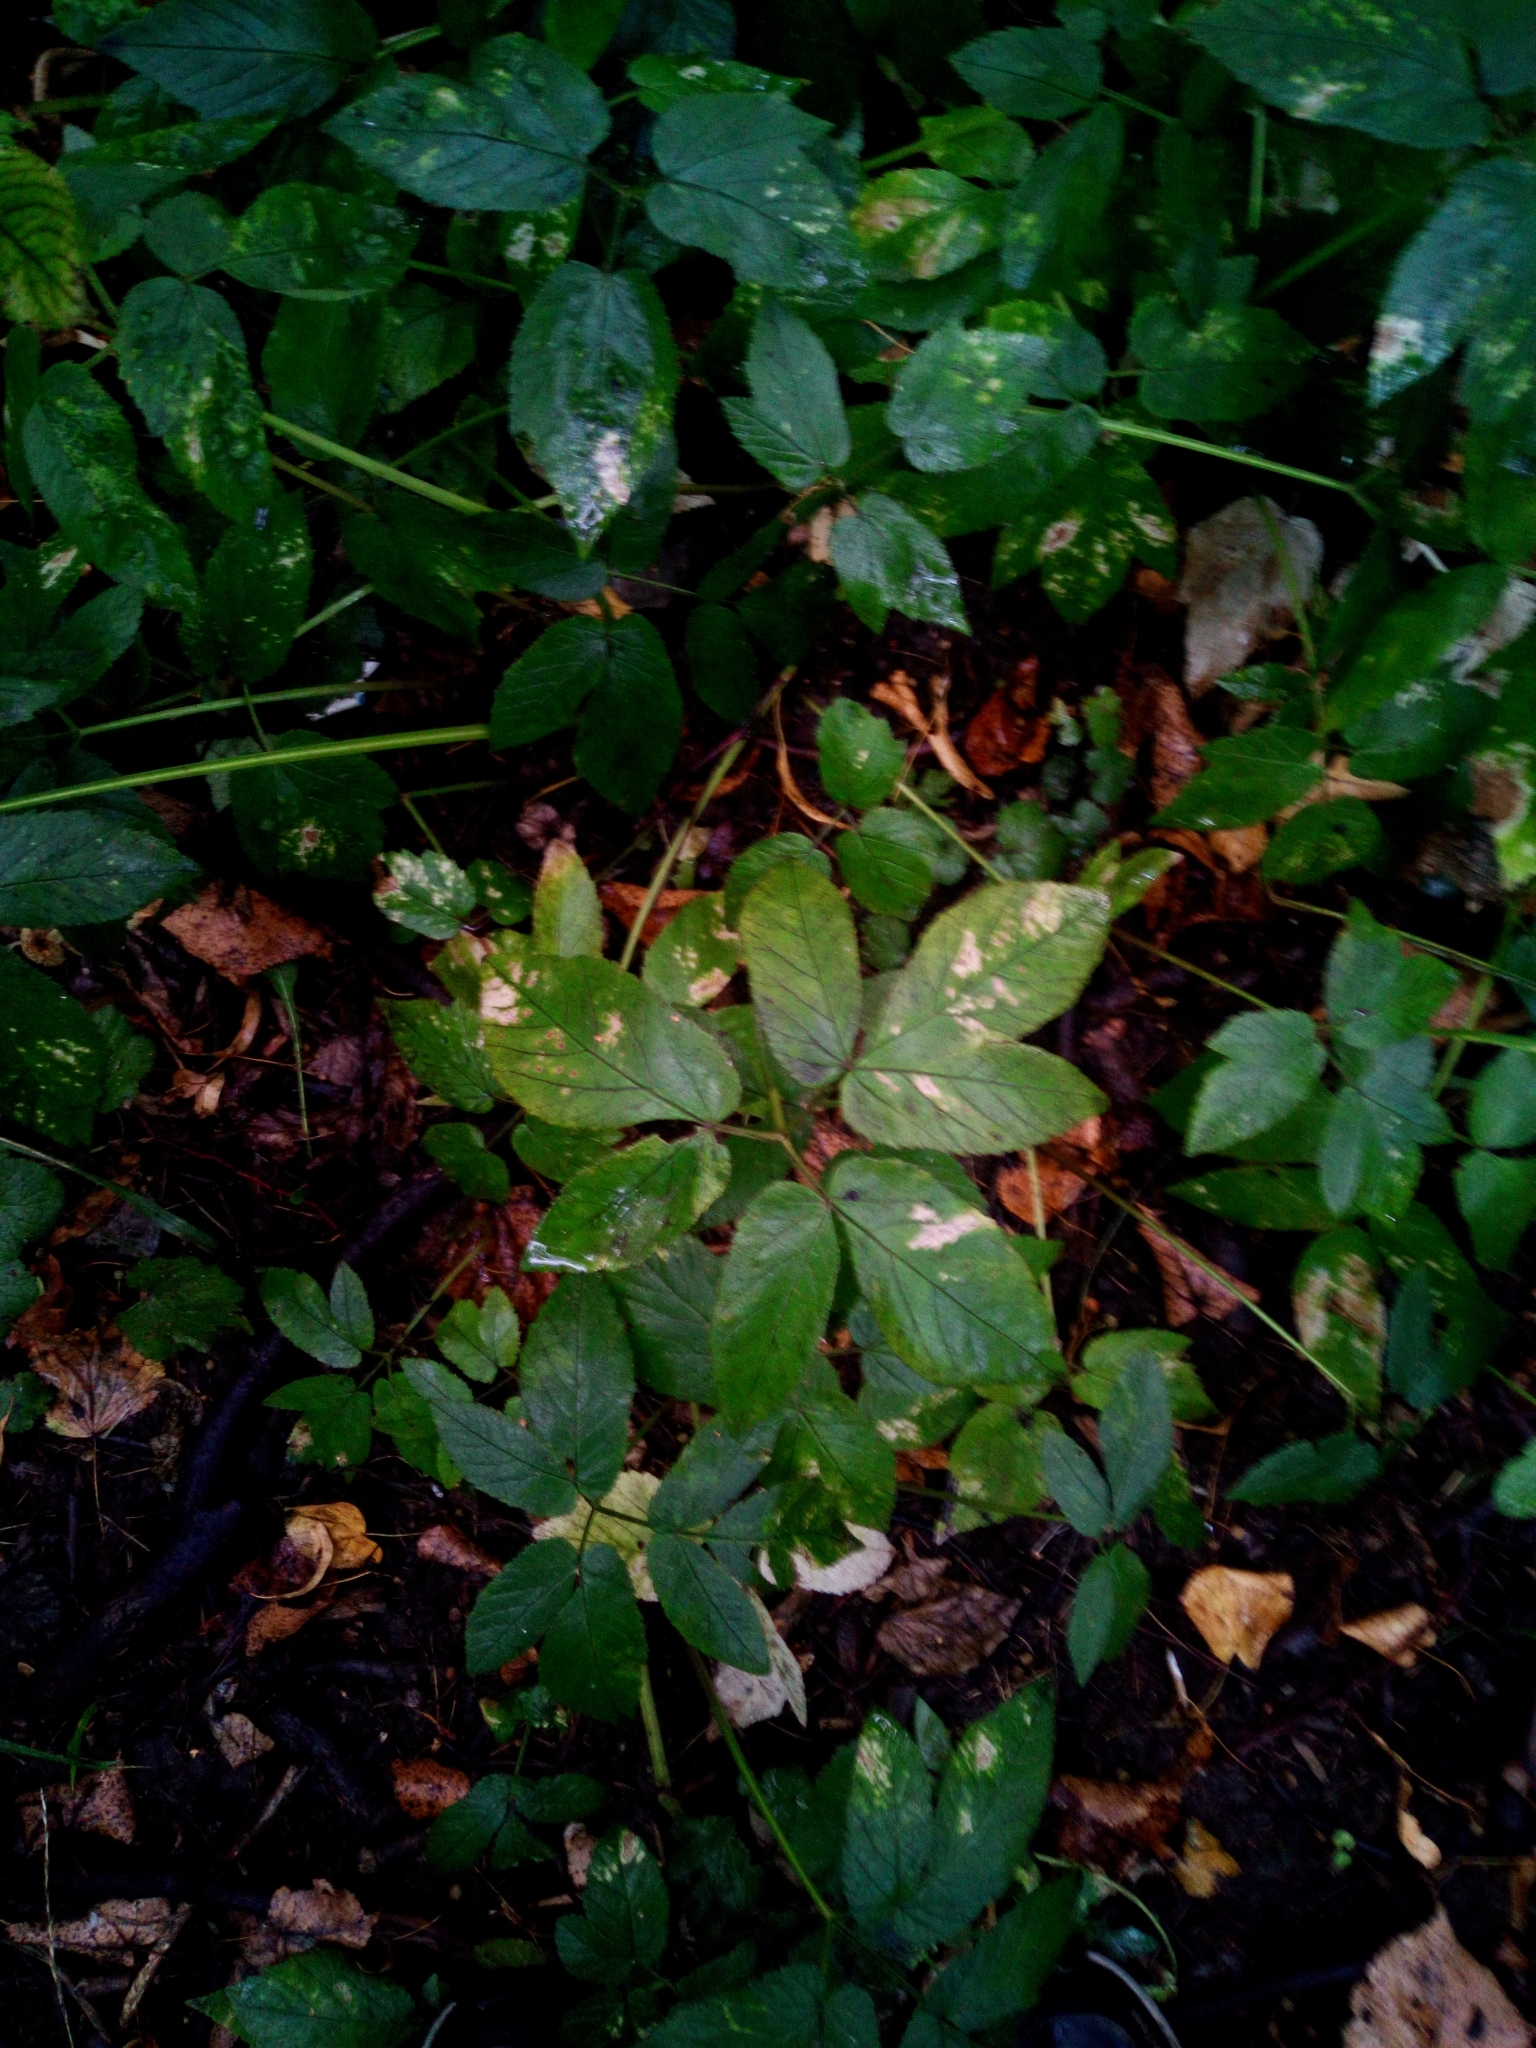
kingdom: Plantae
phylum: Tracheophyta
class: Magnoliopsida
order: Apiales
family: Apiaceae
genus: Aegopodium
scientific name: Aegopodium podagraria
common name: Ground-elder
